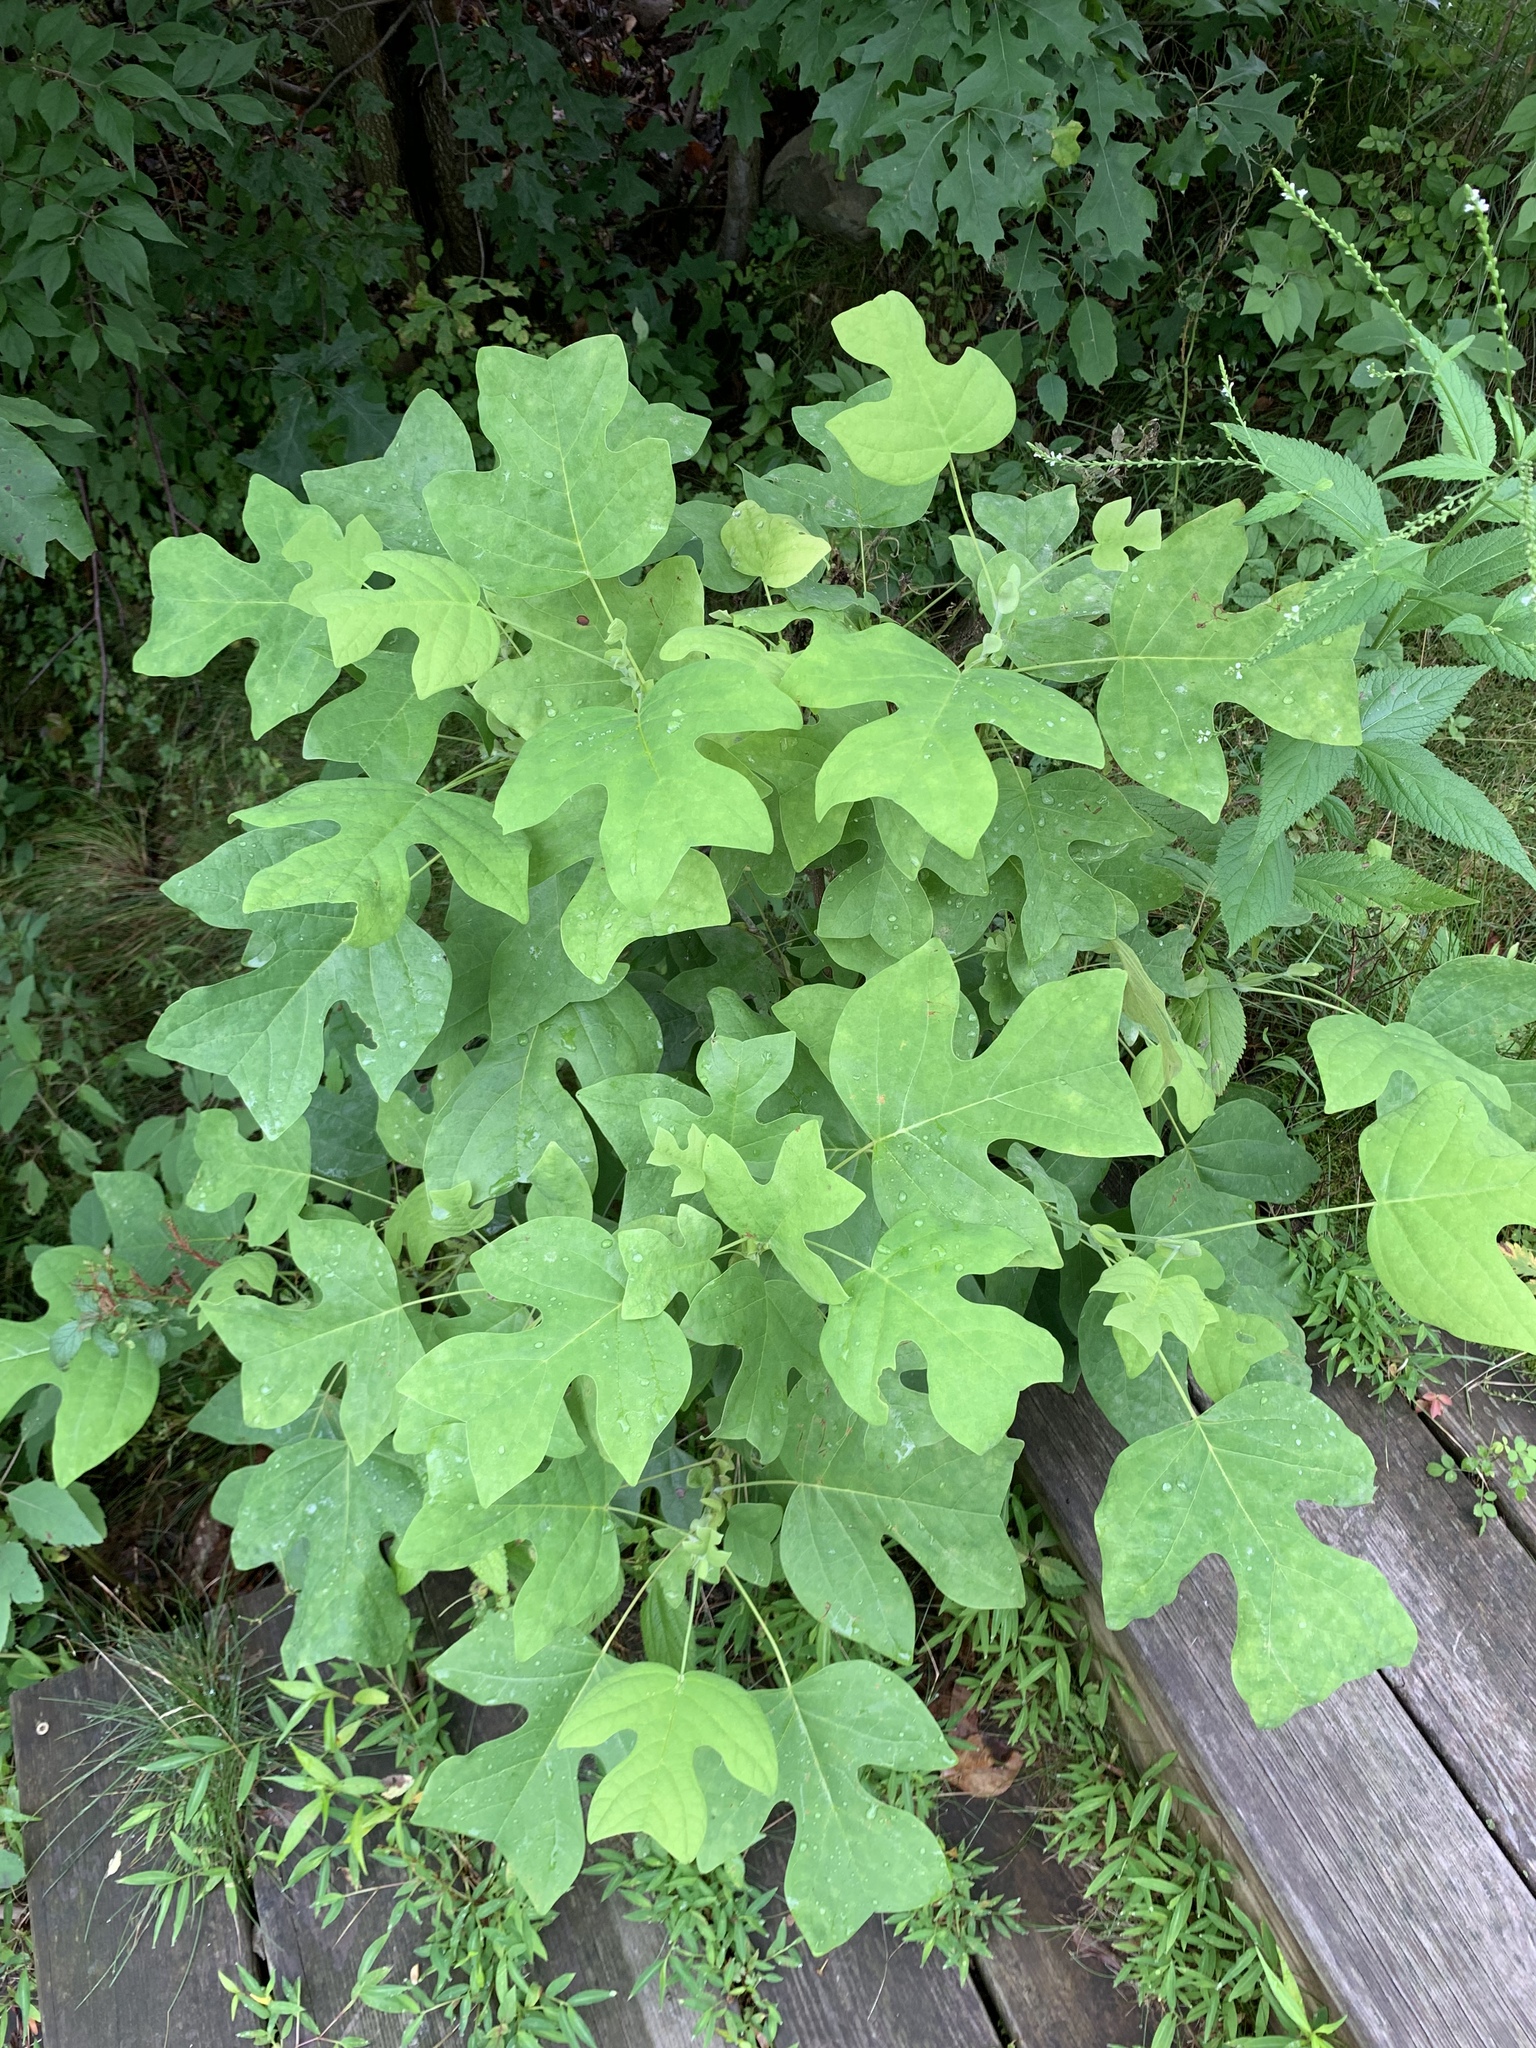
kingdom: Plantae
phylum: Tracheophyta
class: Magnoliopsida
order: Magnoliales
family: Magnoliaceae
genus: Liriodendron
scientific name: Liriodendron tulipifera
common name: Tulip tree
